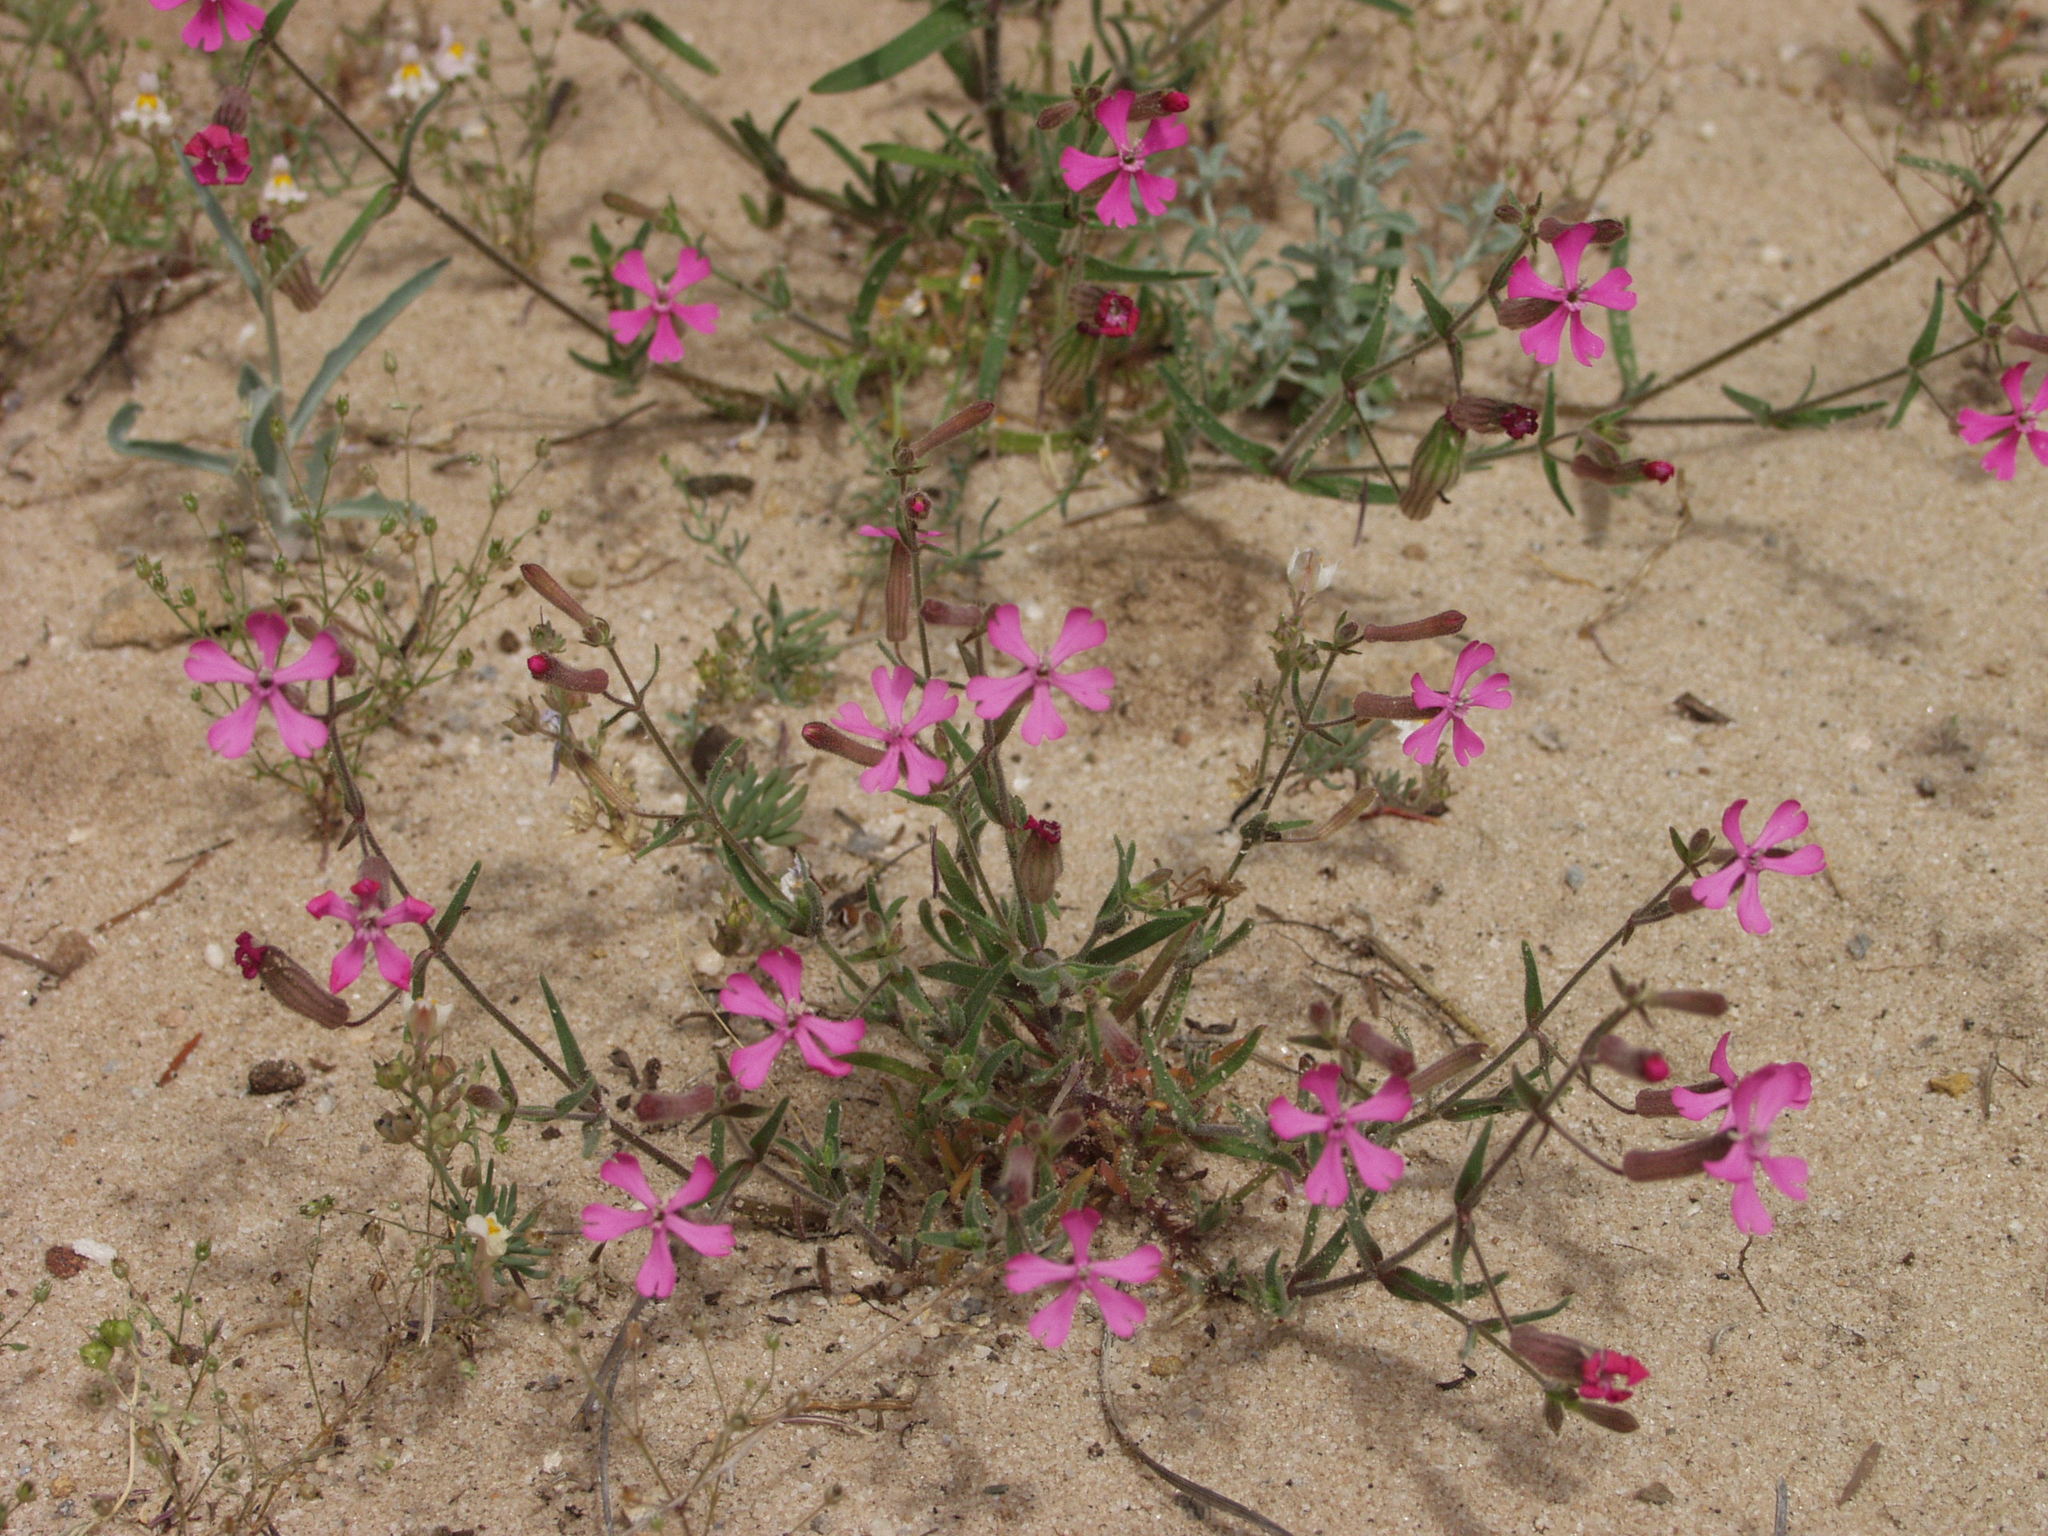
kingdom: Plantae
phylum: Tracheophyta
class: Magnoliopsida
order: Caryophyllales
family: Caryophyllaceae
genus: Silene
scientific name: Silene psammitis
